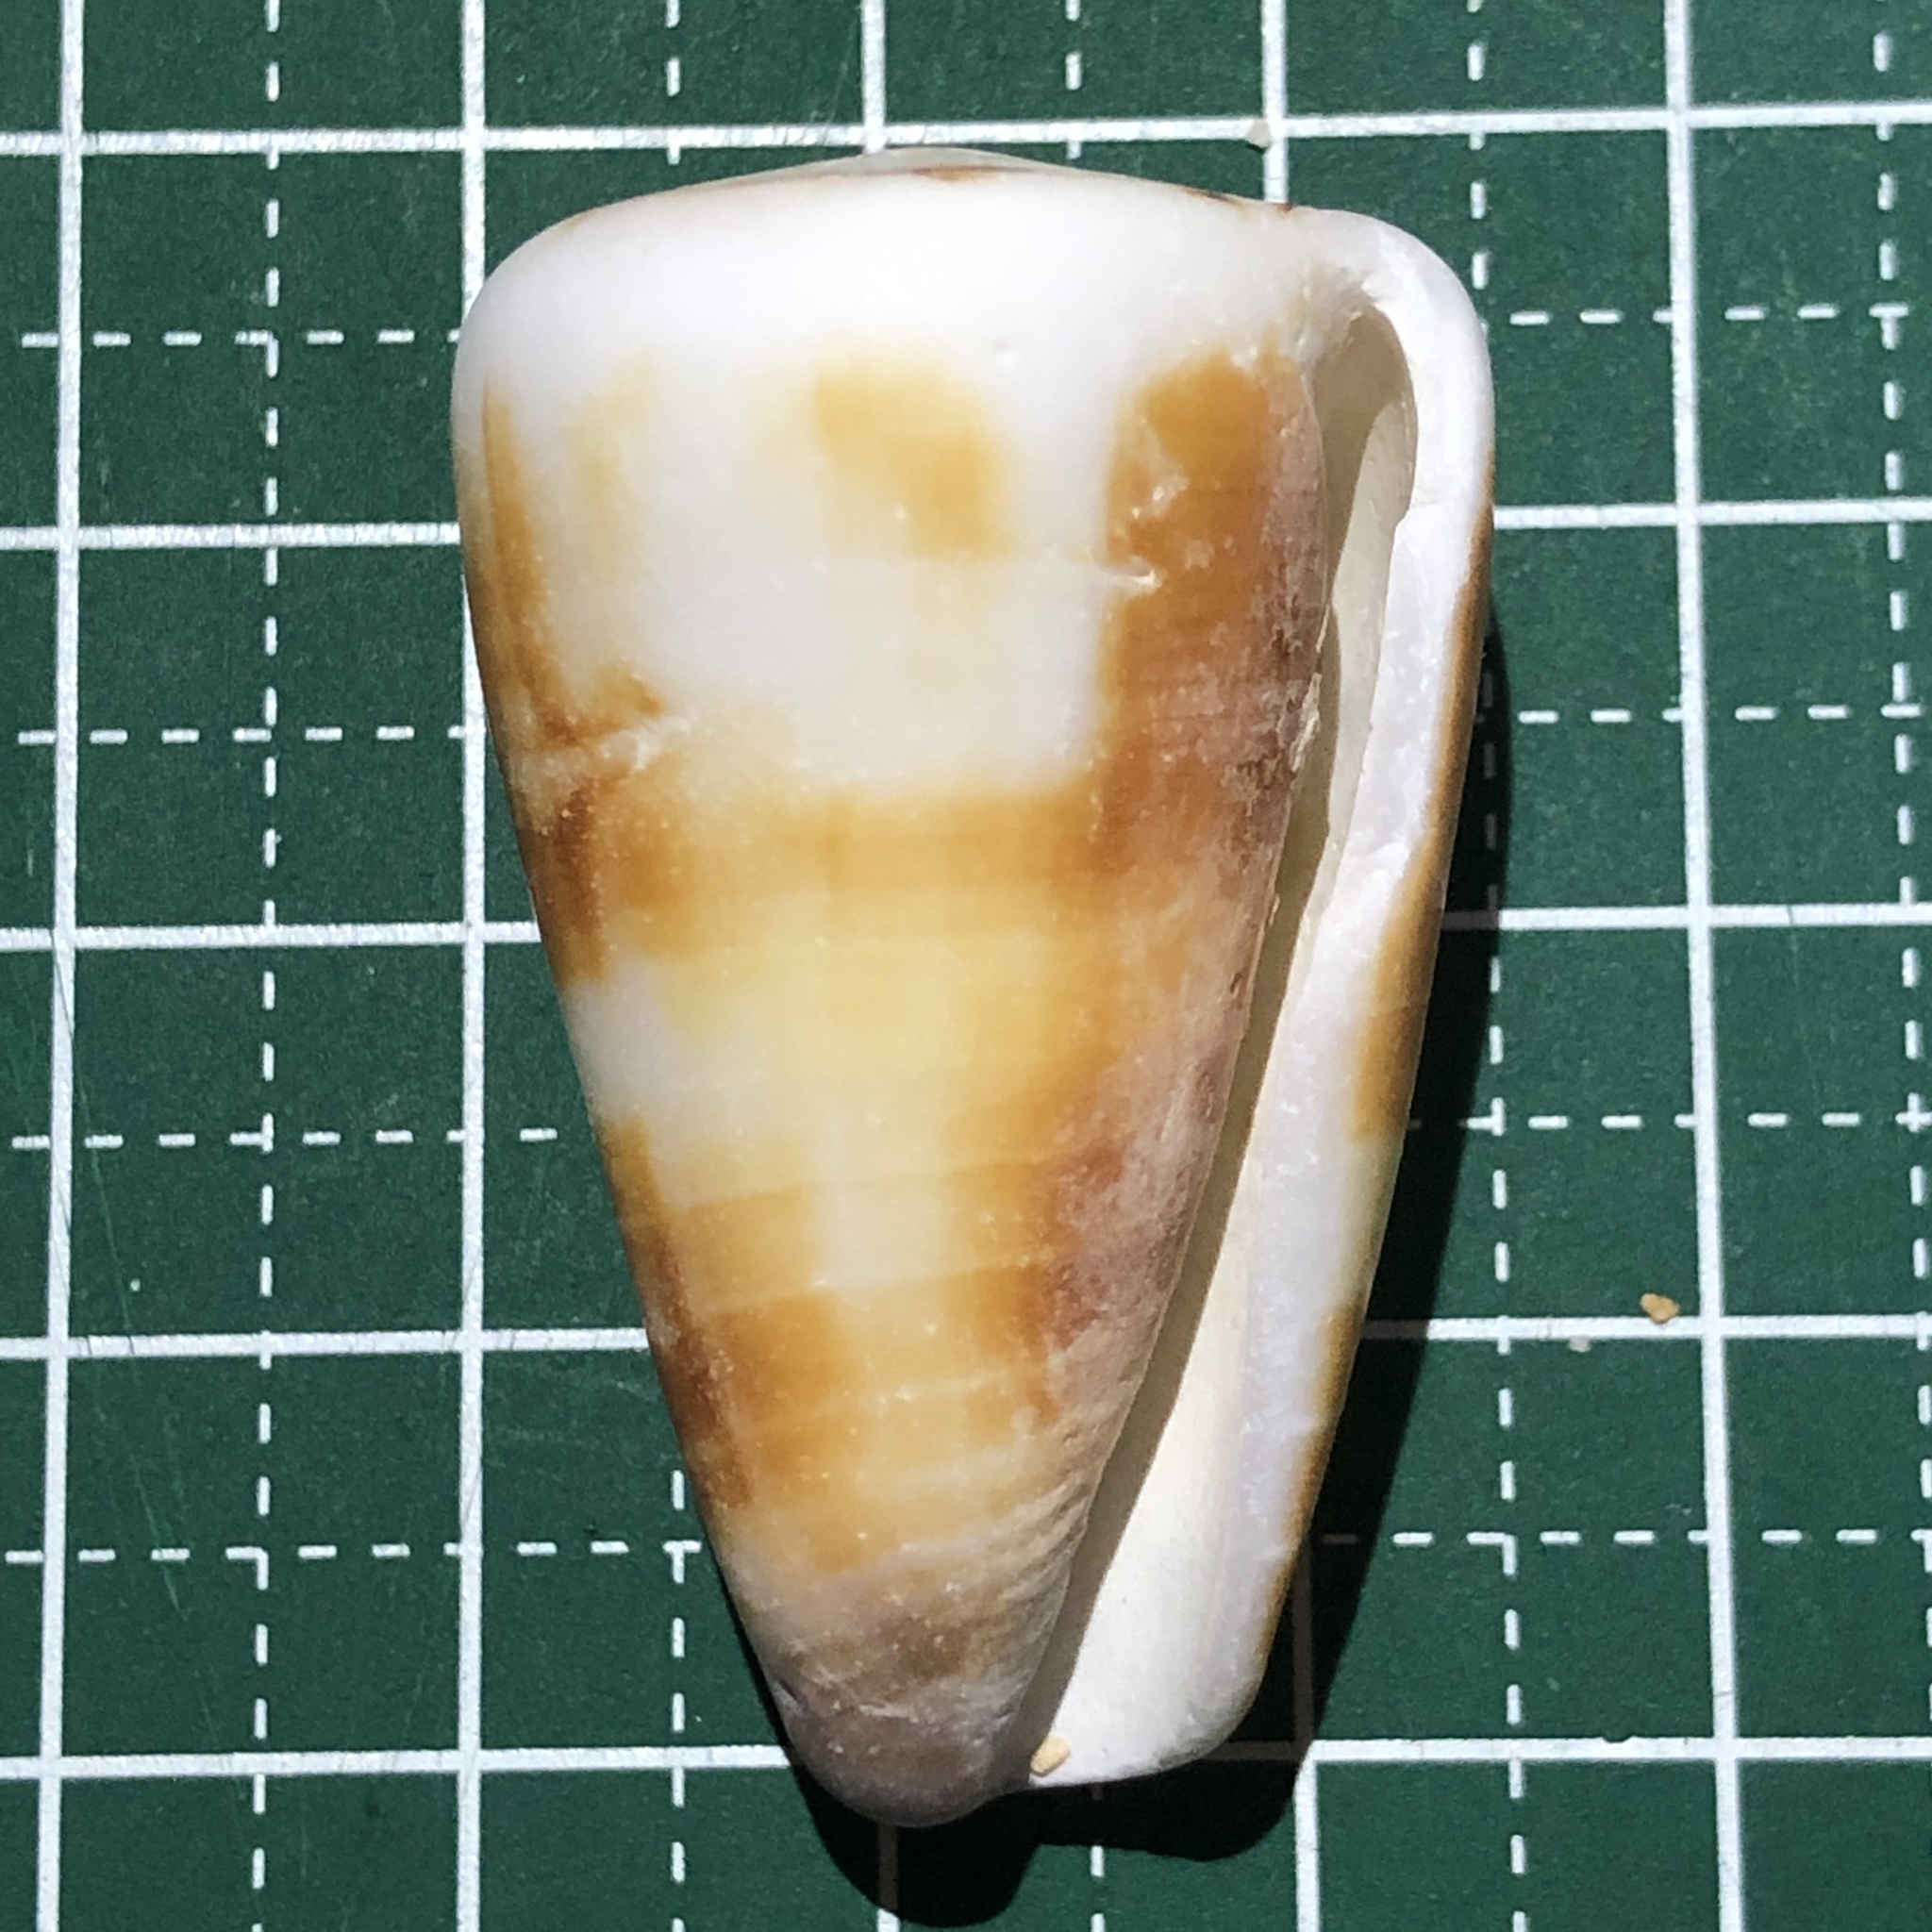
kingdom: Animalia
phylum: Mollusca
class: Gastropoda
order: Neogastropoda
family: Conidae
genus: Conus
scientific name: Conus planorbis
